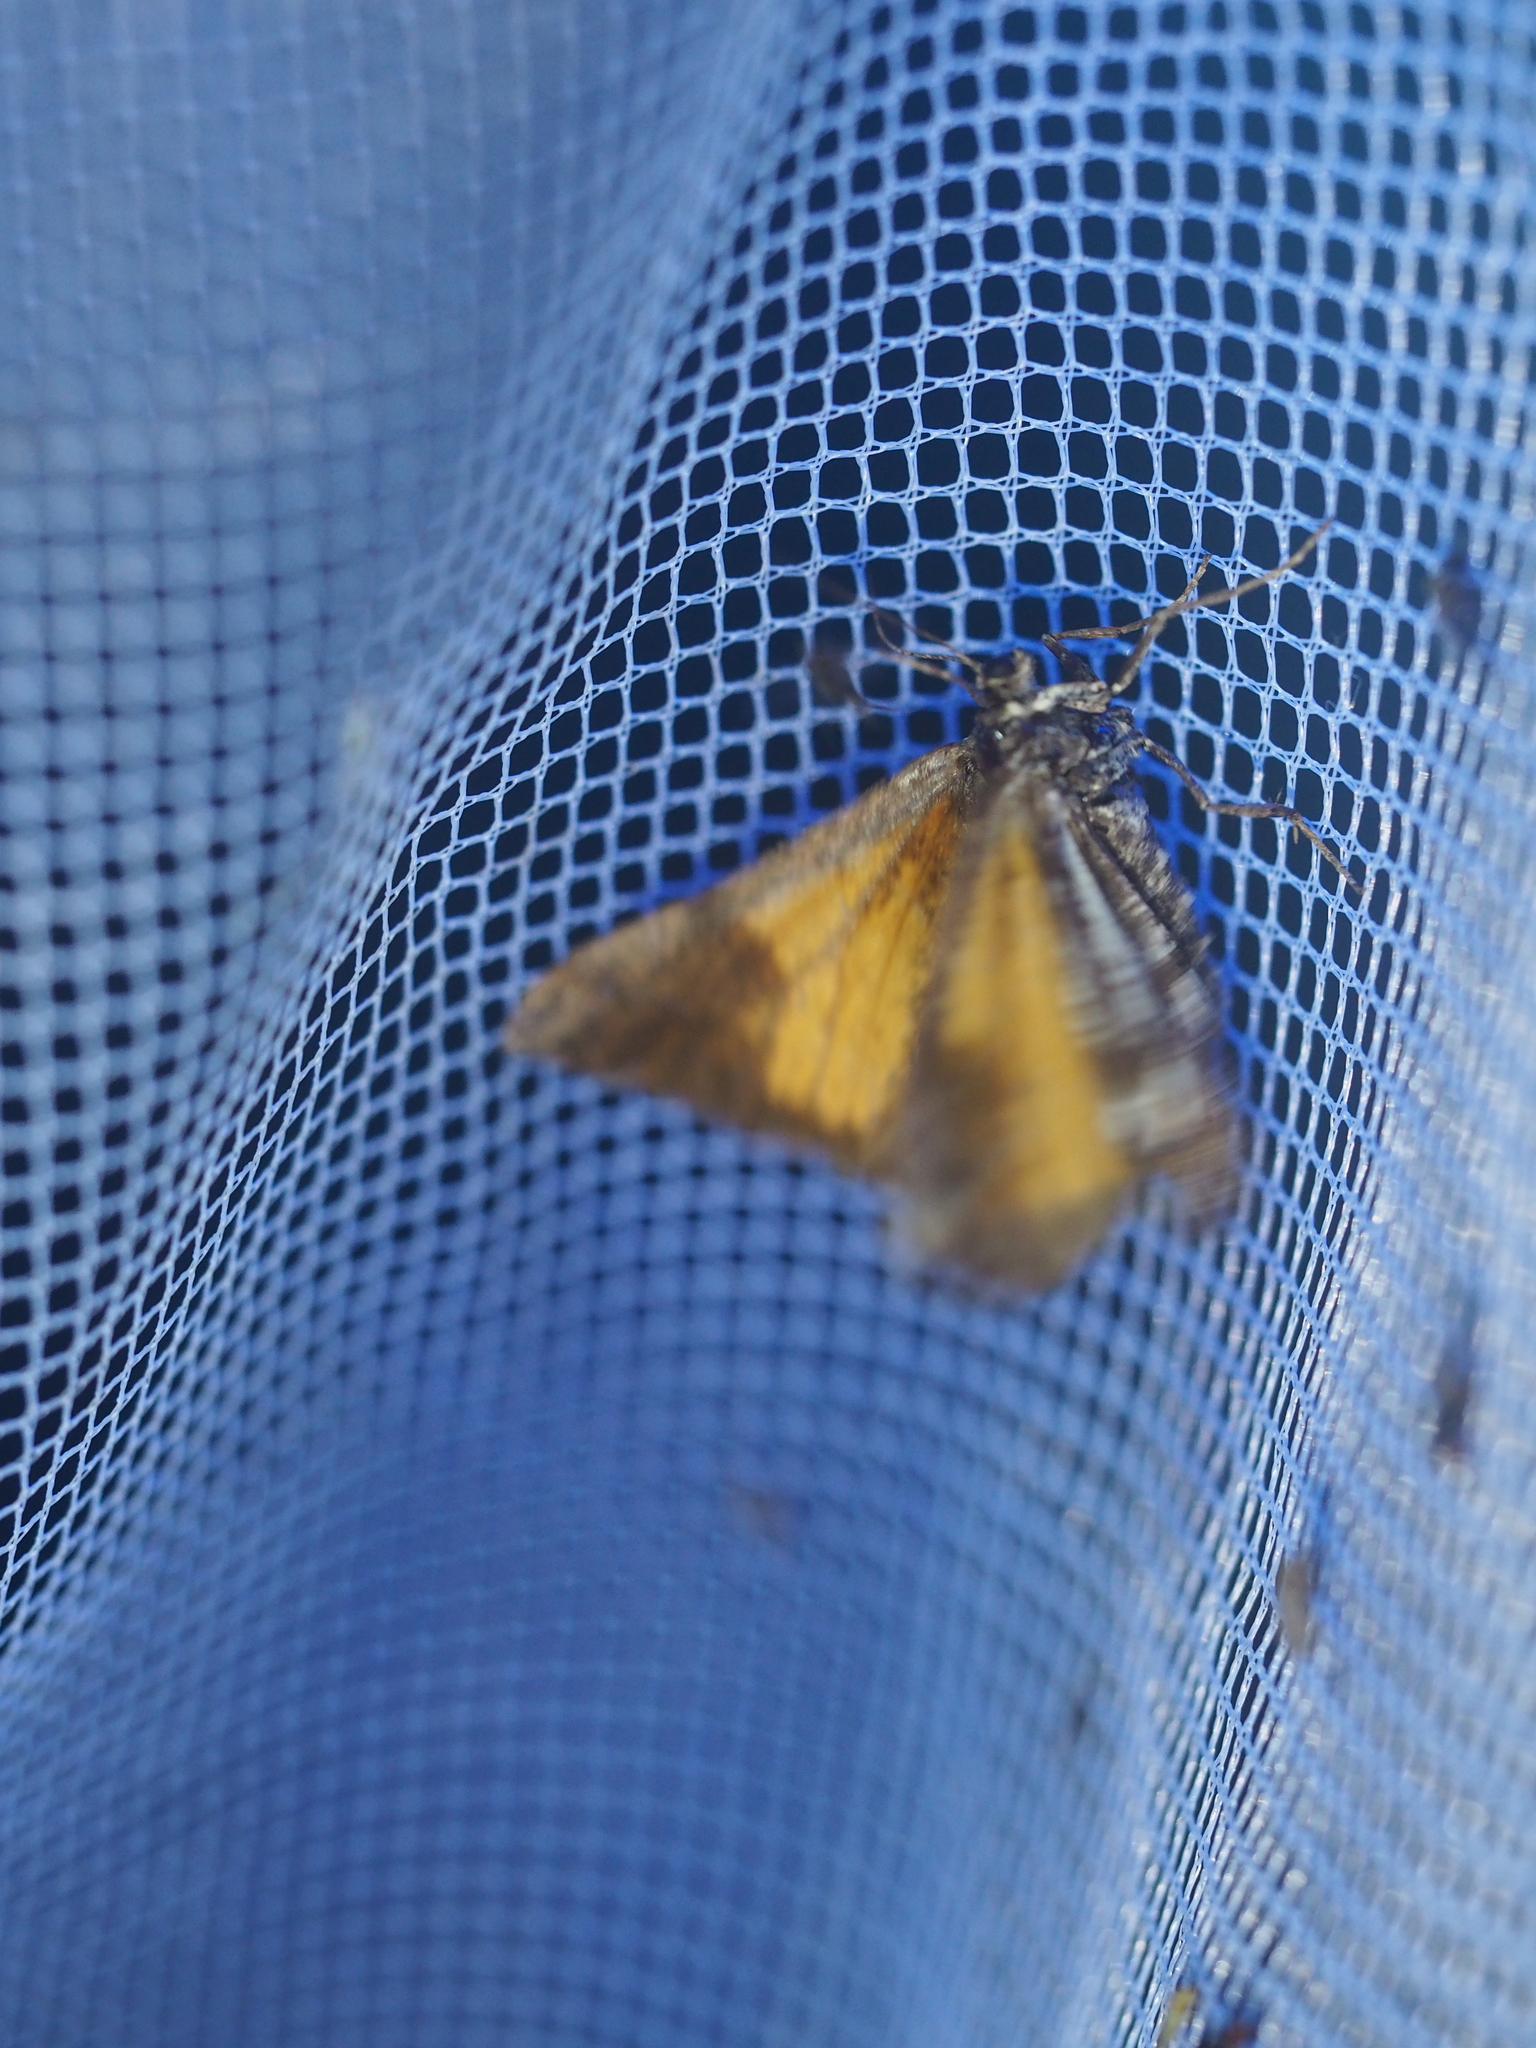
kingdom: Animalia
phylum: Arthropoda
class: Insecta
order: Lepidoptera
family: Geometridae
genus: Bupalus
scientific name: Bupalus piniaria
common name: Bordered white
